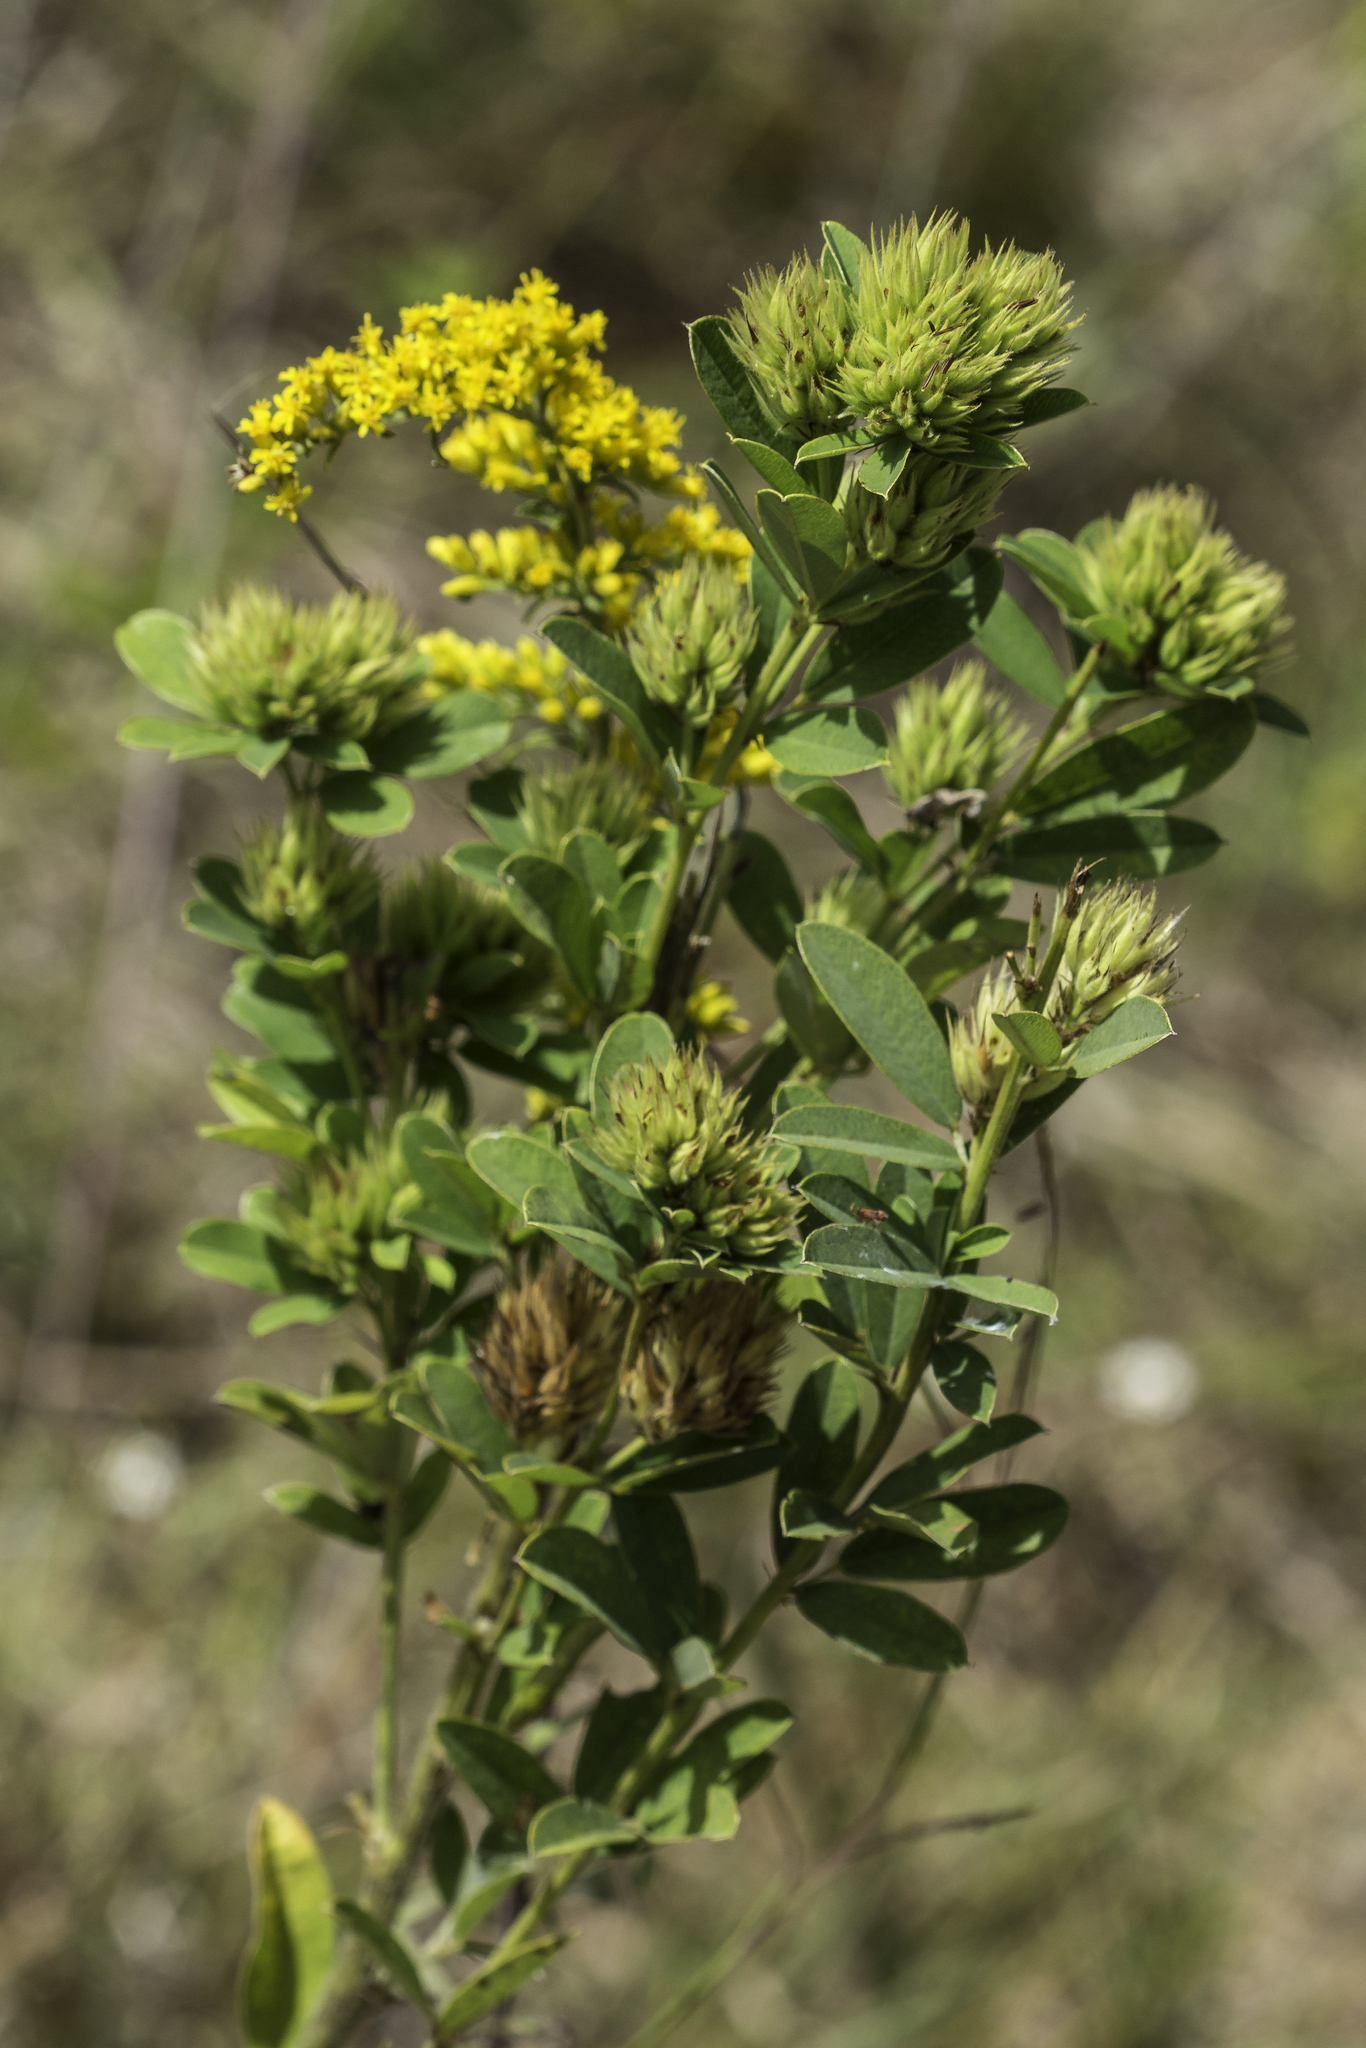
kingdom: Plantae
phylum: Tracheophyta
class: Magnoliopsida
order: Fabales
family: Fabaceae
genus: Lespedeza
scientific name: Lespedeza capitata
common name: Dusty clover
